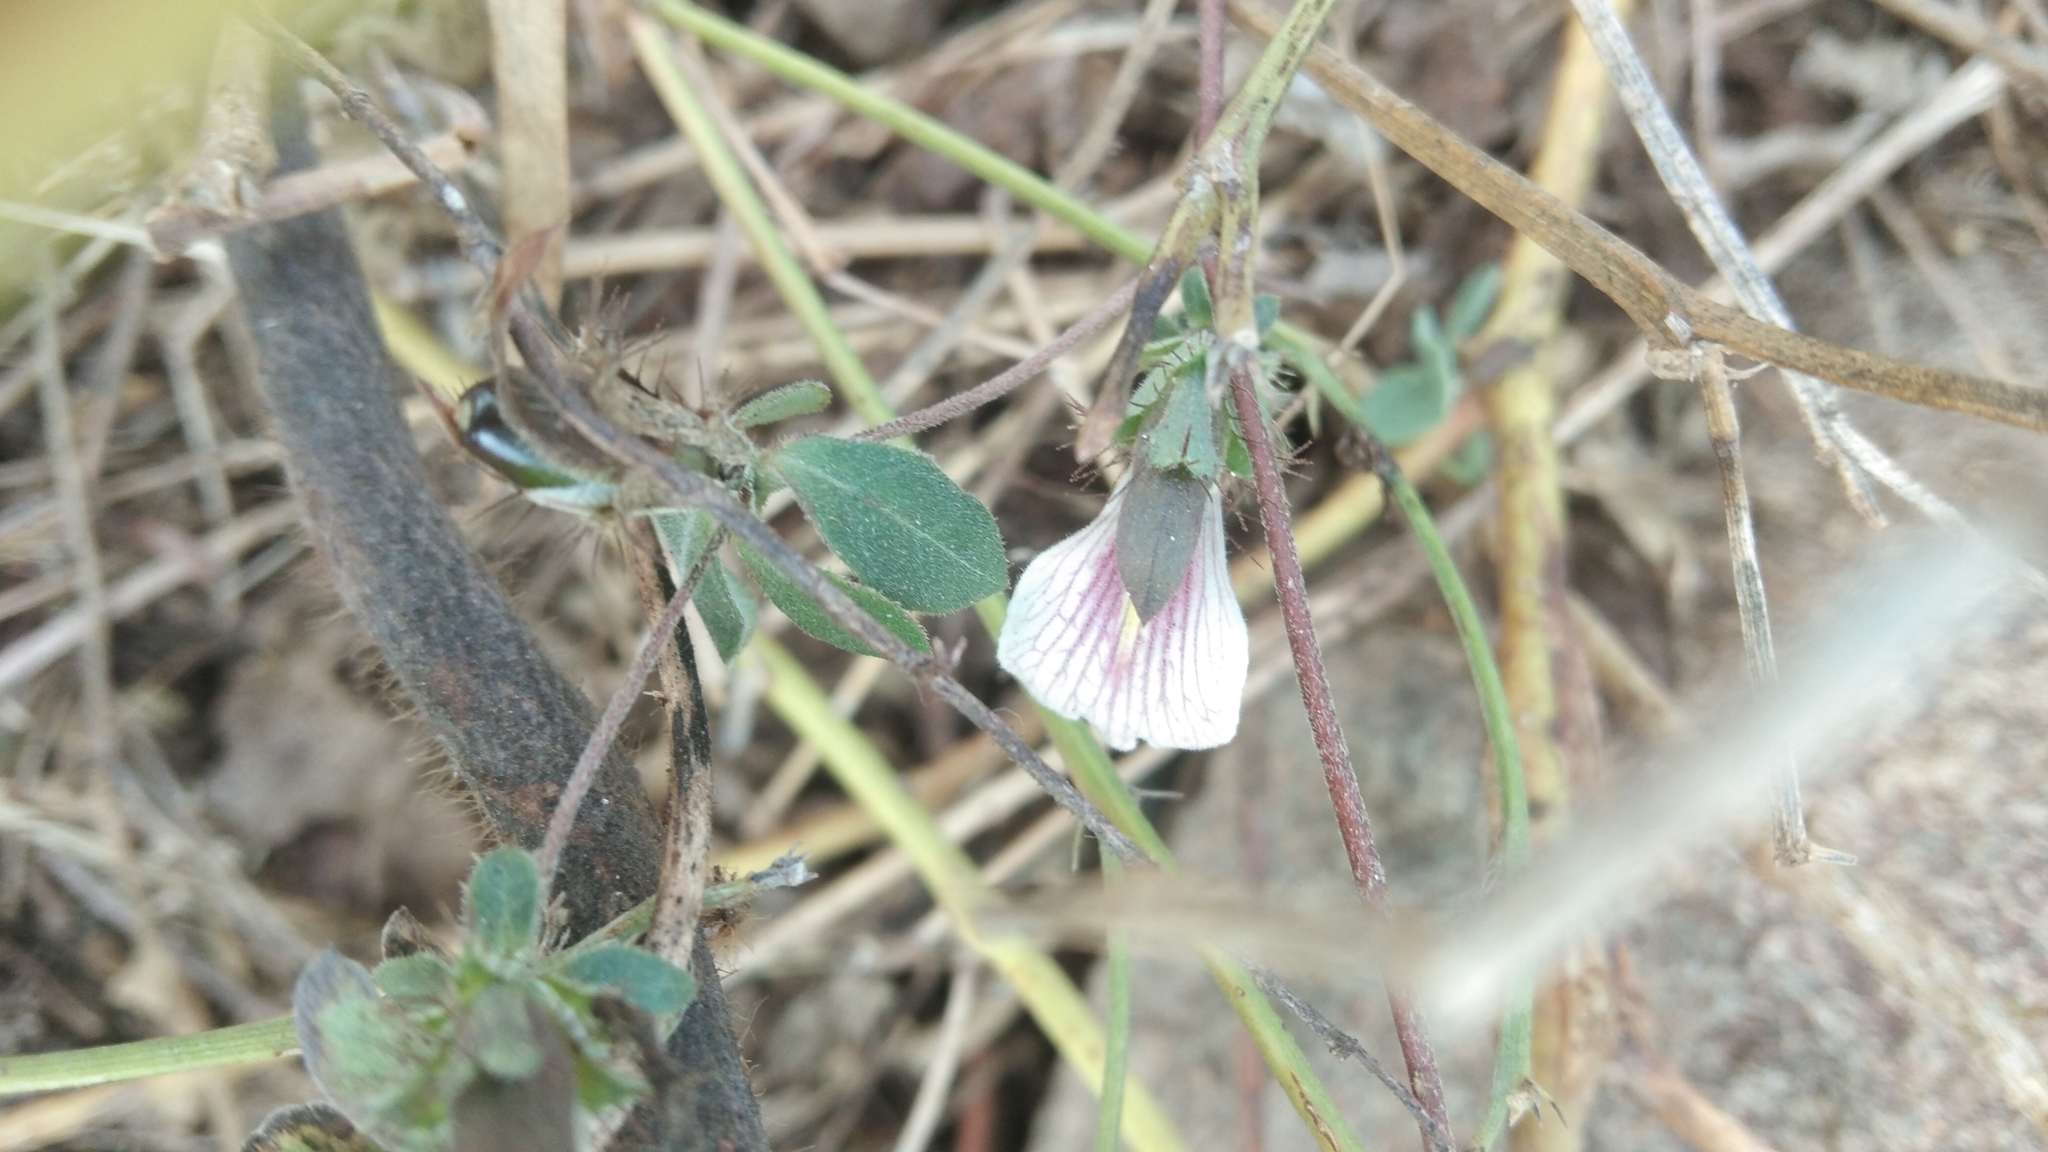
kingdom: Plantae
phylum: Tracheophyta
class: Magnoliopsida
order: Lamiales
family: Acanthaceae
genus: Blepharis
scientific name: Blepharis maderaspatensis
